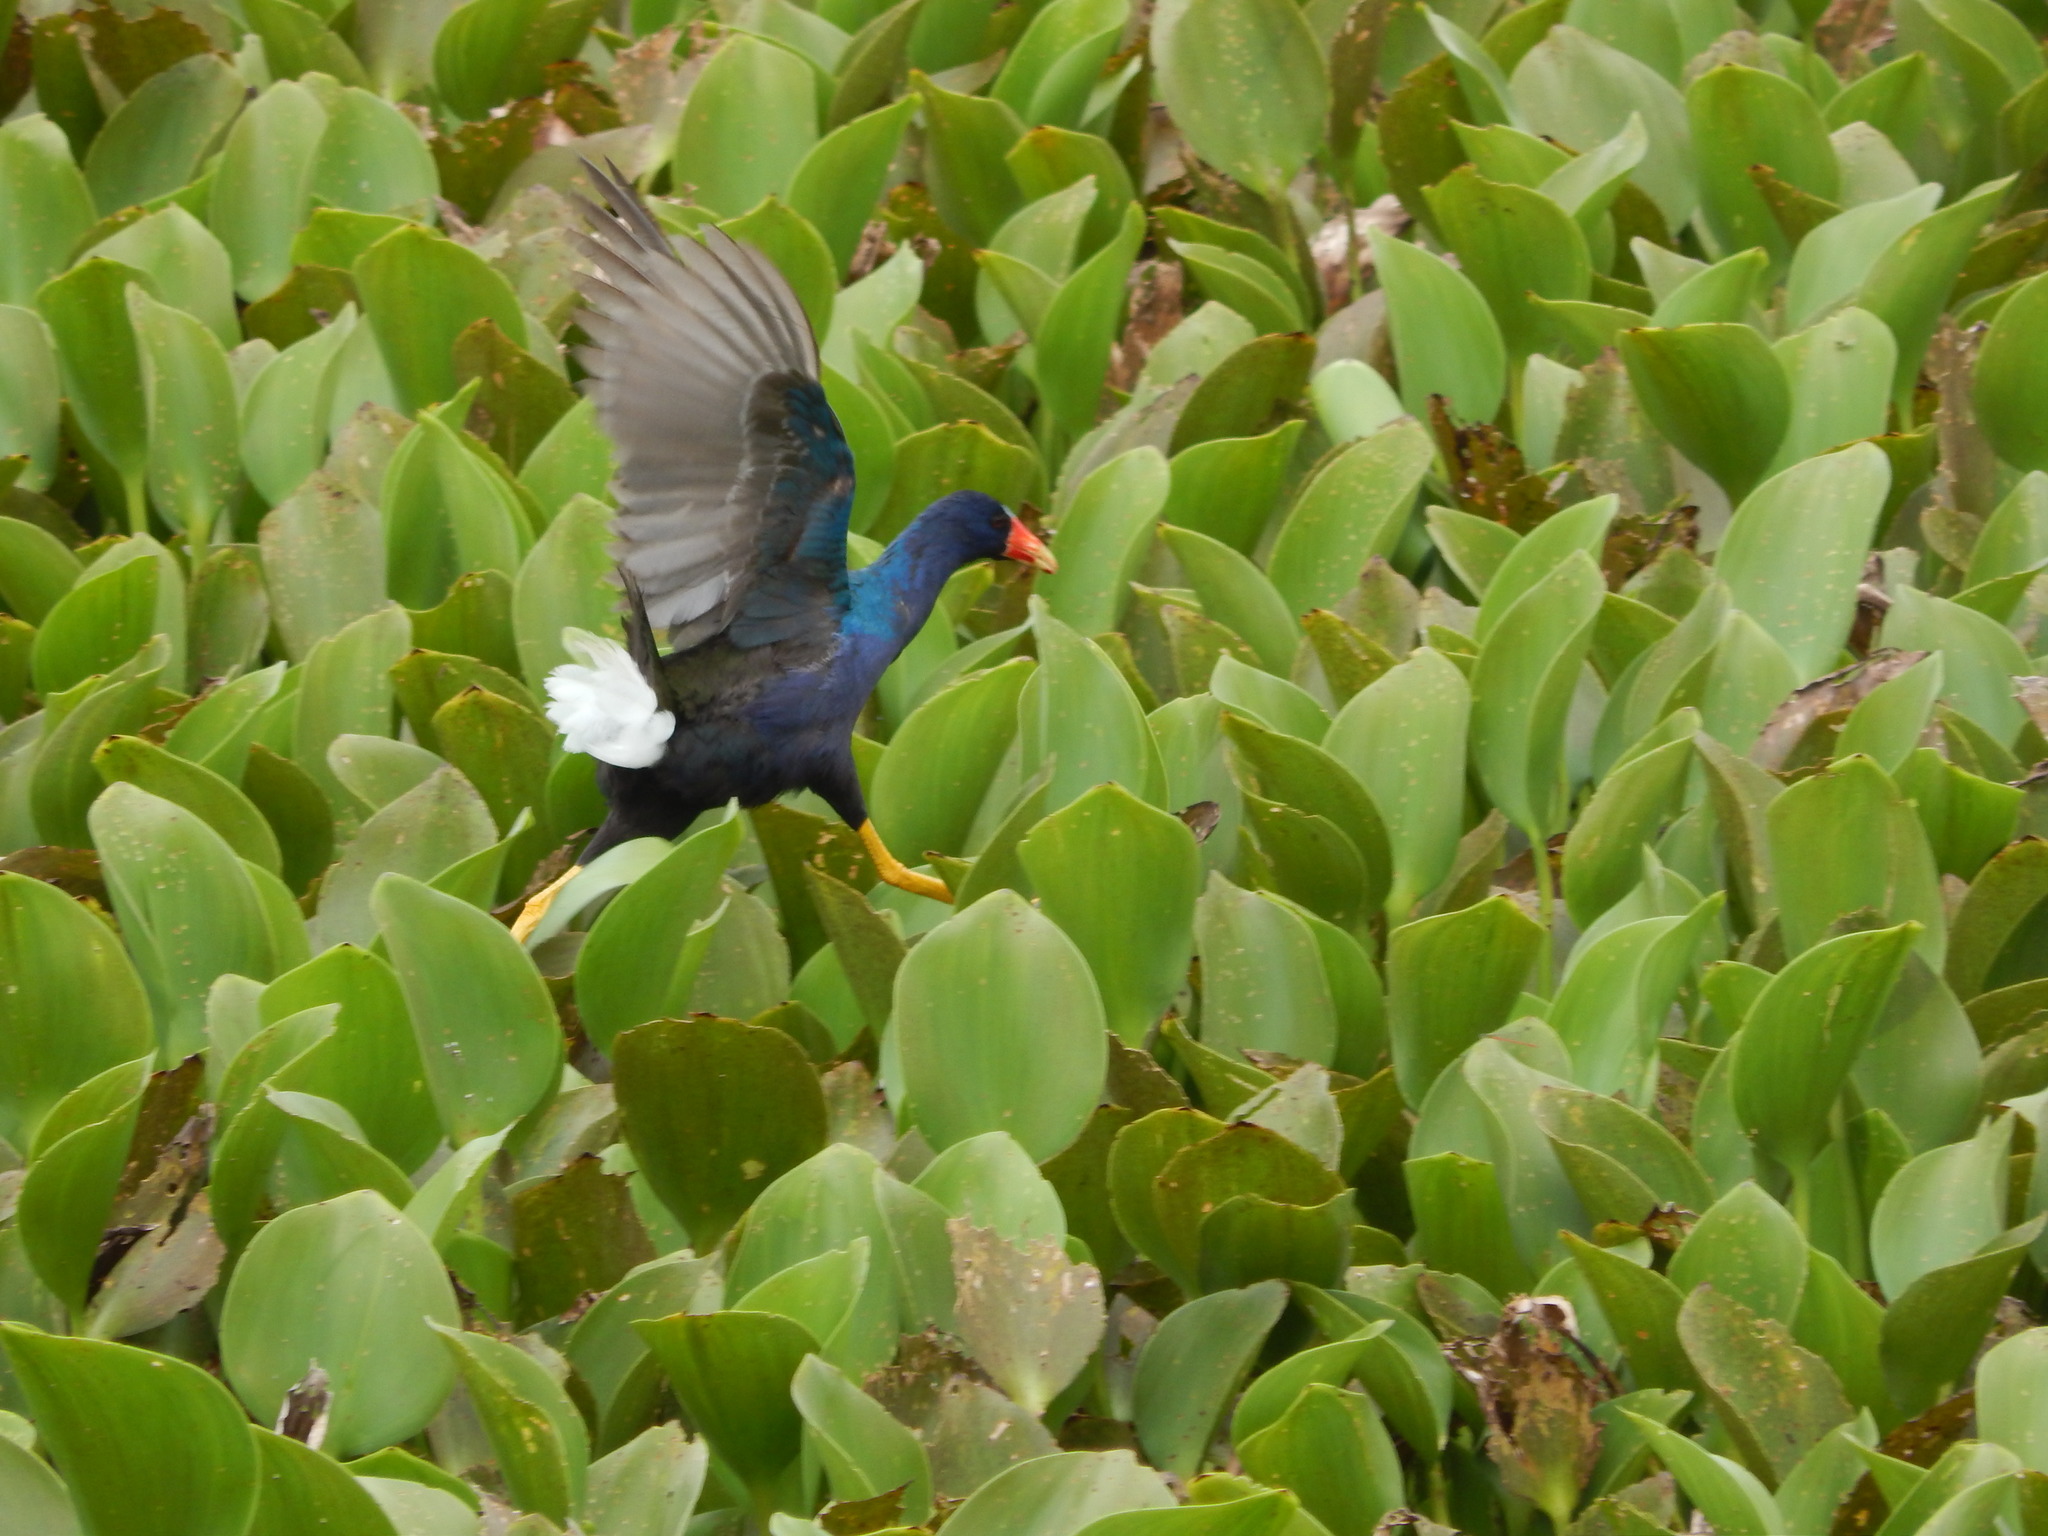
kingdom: Animalia
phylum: Chordata
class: Aves
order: Gruiformes
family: Rallidae
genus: Porphyrio
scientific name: Porphyrio martinica
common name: Purple gallinule
